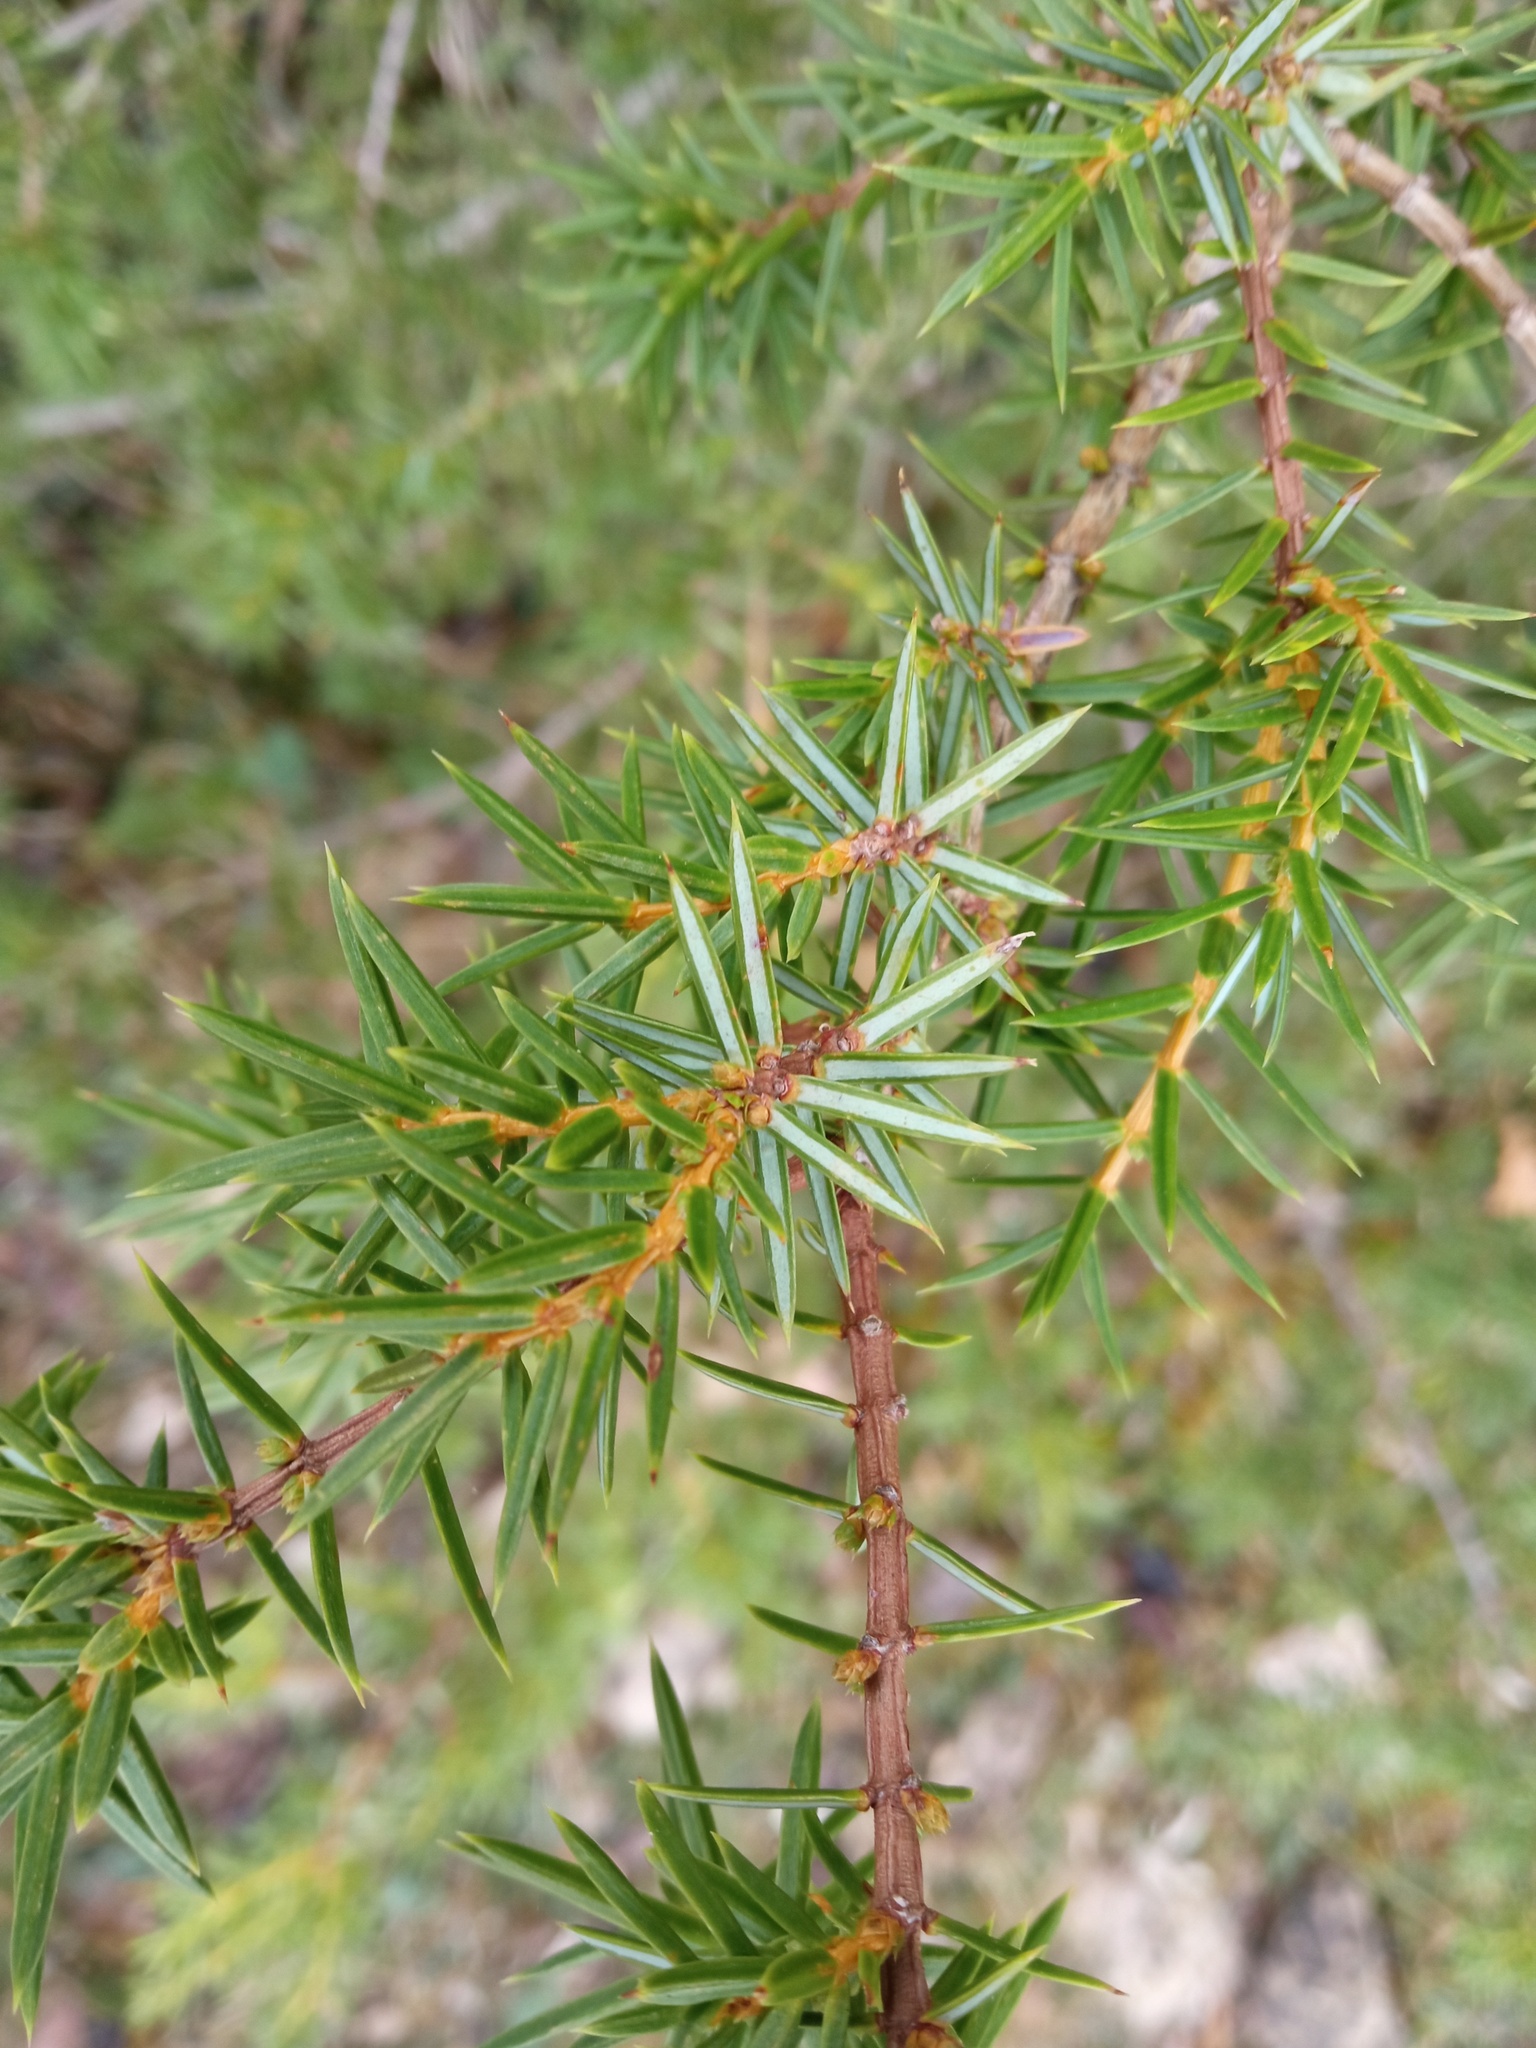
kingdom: Plantae
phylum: Tracheophyta
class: Pinopsida
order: Pinales
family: Cupressaceae
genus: Juniperus
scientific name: Juniperus communis
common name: Common juniper
